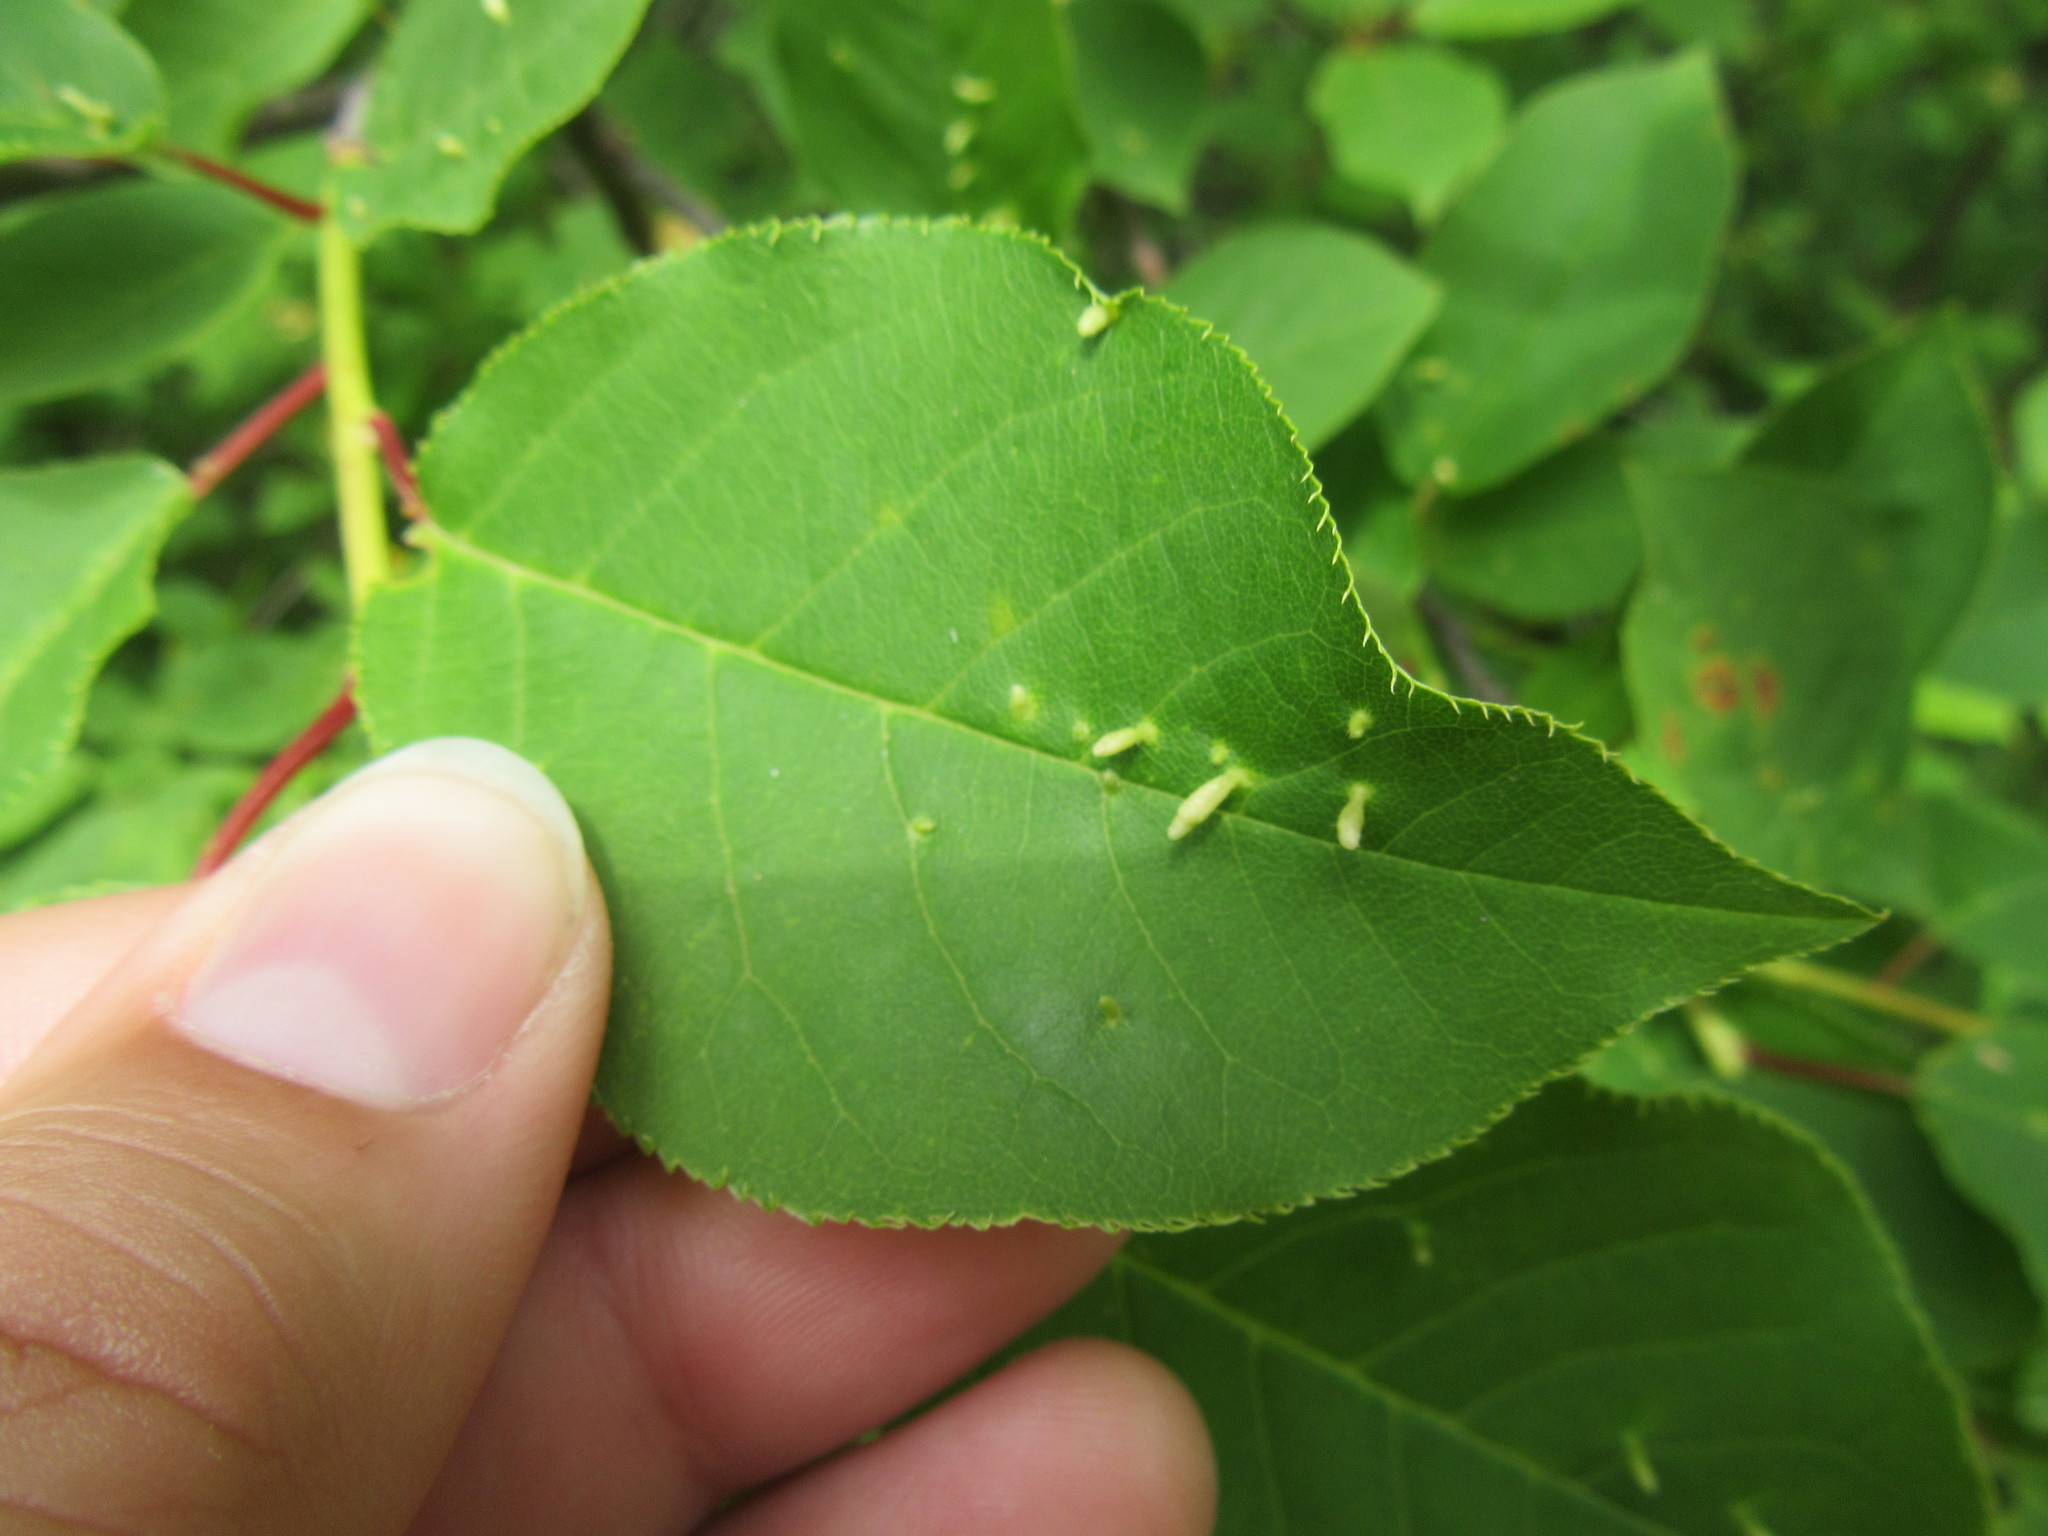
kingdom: Animalia
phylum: Arthropoda
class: Arachnida
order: Trombidiformes
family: Eriophyidae
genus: Eriophyes
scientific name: Eriophyes emarginatae
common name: Plum leaf gall mite
